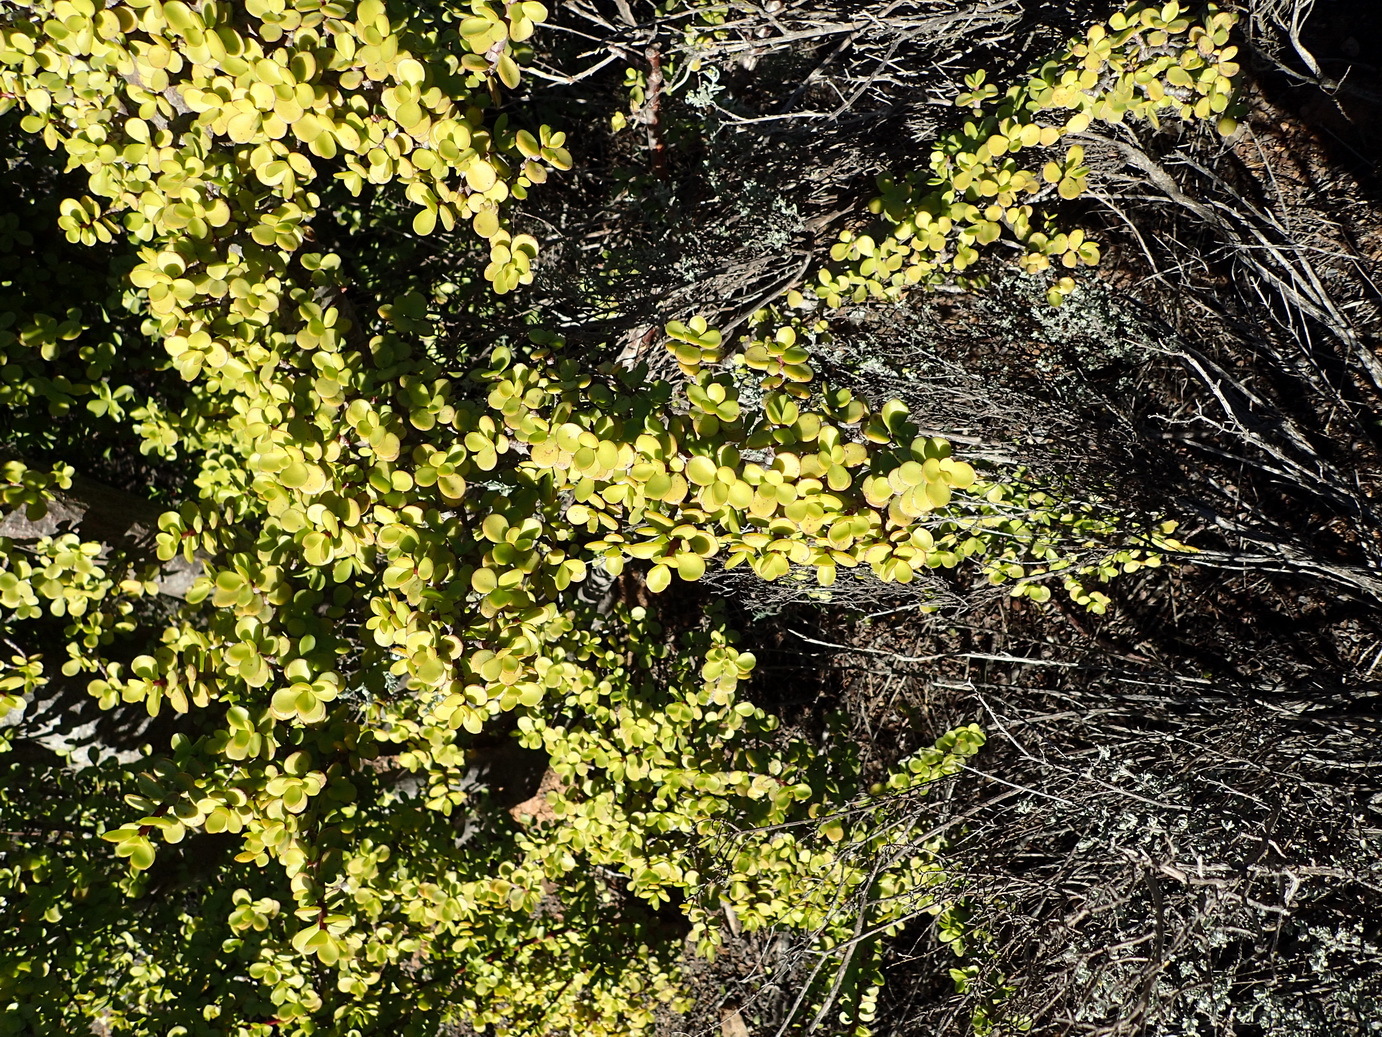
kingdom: Plantae
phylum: Tracheophyta
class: Magnoliopsida
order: Caryophyllales
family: Didiereaceae
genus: Portulacaria
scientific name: Portulacaria afra
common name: Elephant-bush
